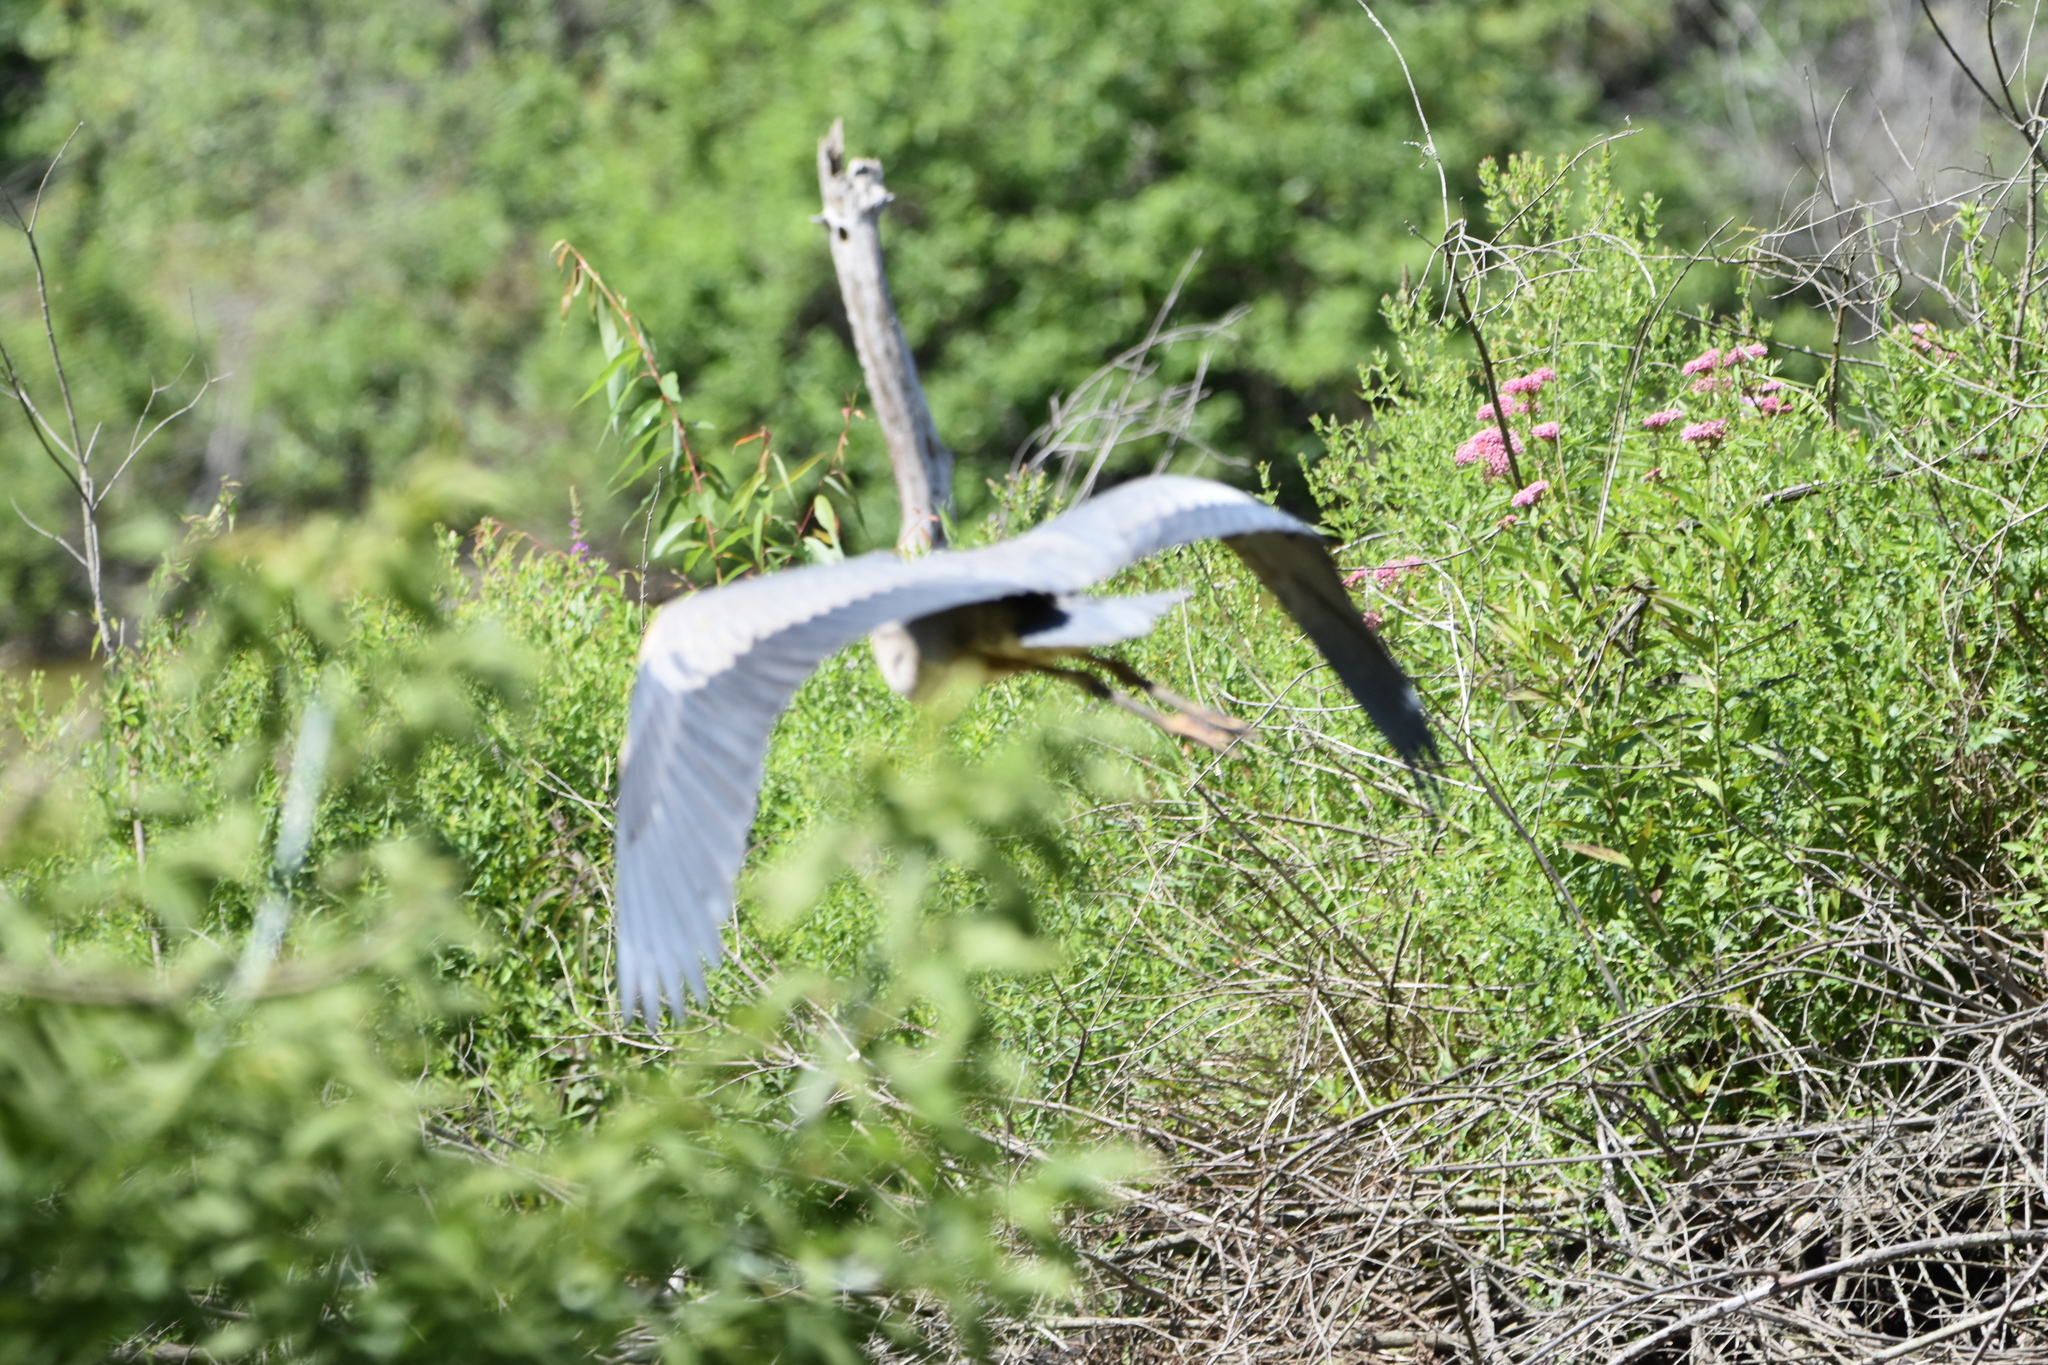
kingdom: Animalia
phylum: Chordata
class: Aves
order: Pelecaniformes
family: Ardeidae
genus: Ardea
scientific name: Ardea herodias
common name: Great blue heron
